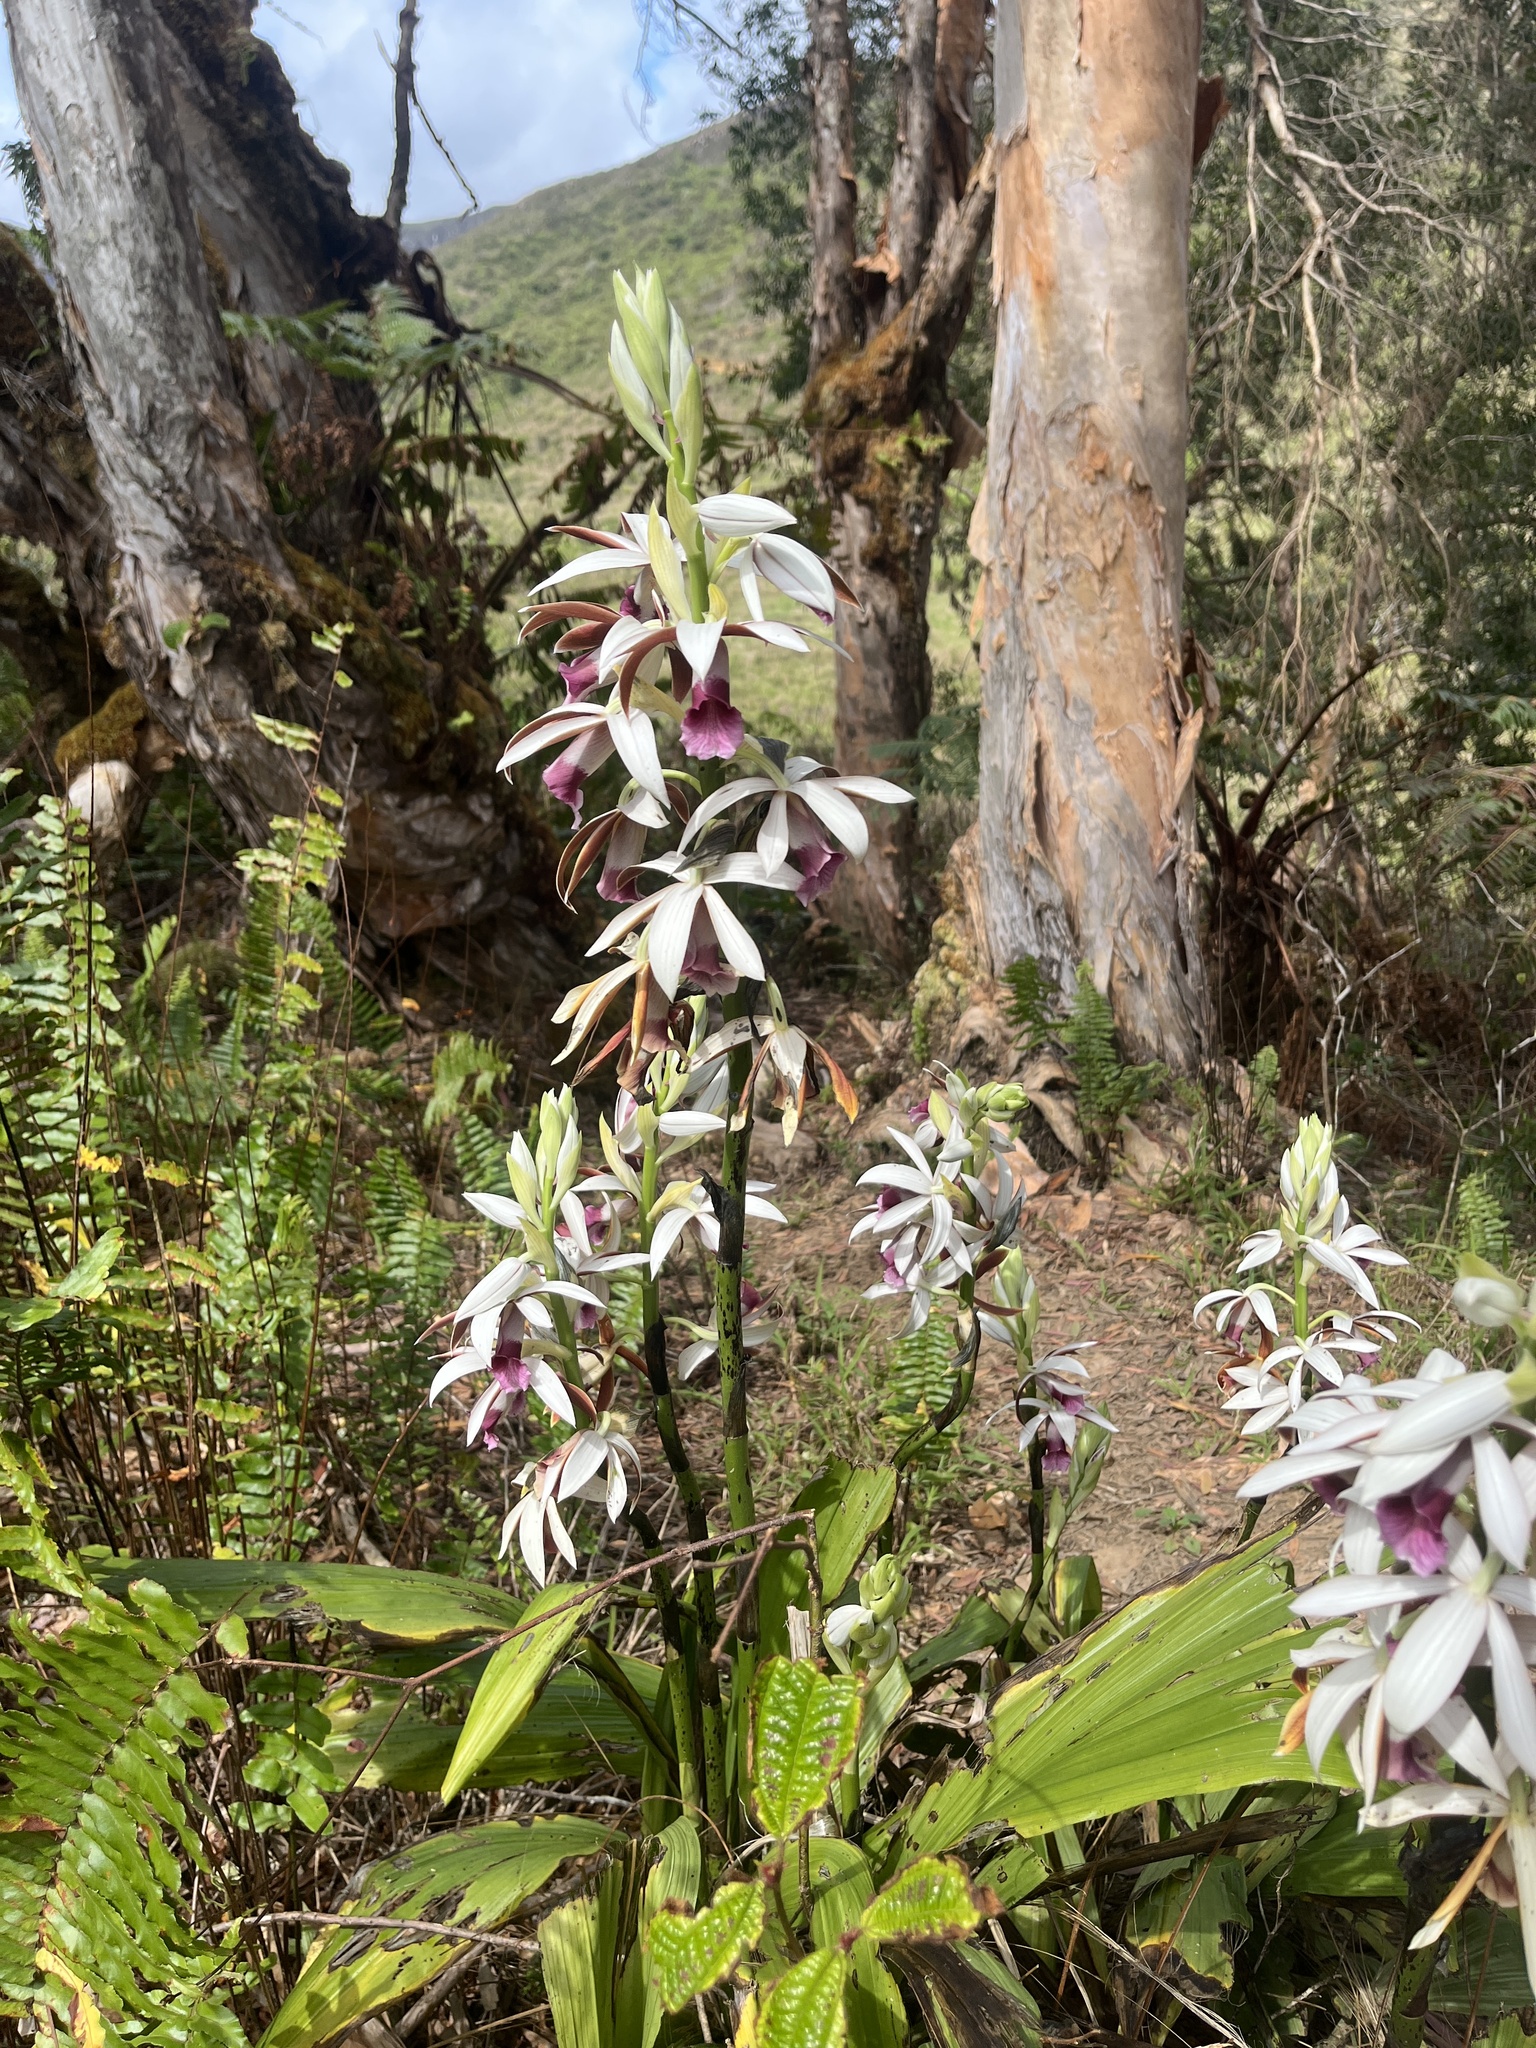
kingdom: Plantae
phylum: Tracheophyta
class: Liliopsida
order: Asparagales
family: Orchidaceae
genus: Calanthe
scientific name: Calanthe tankervilleae
